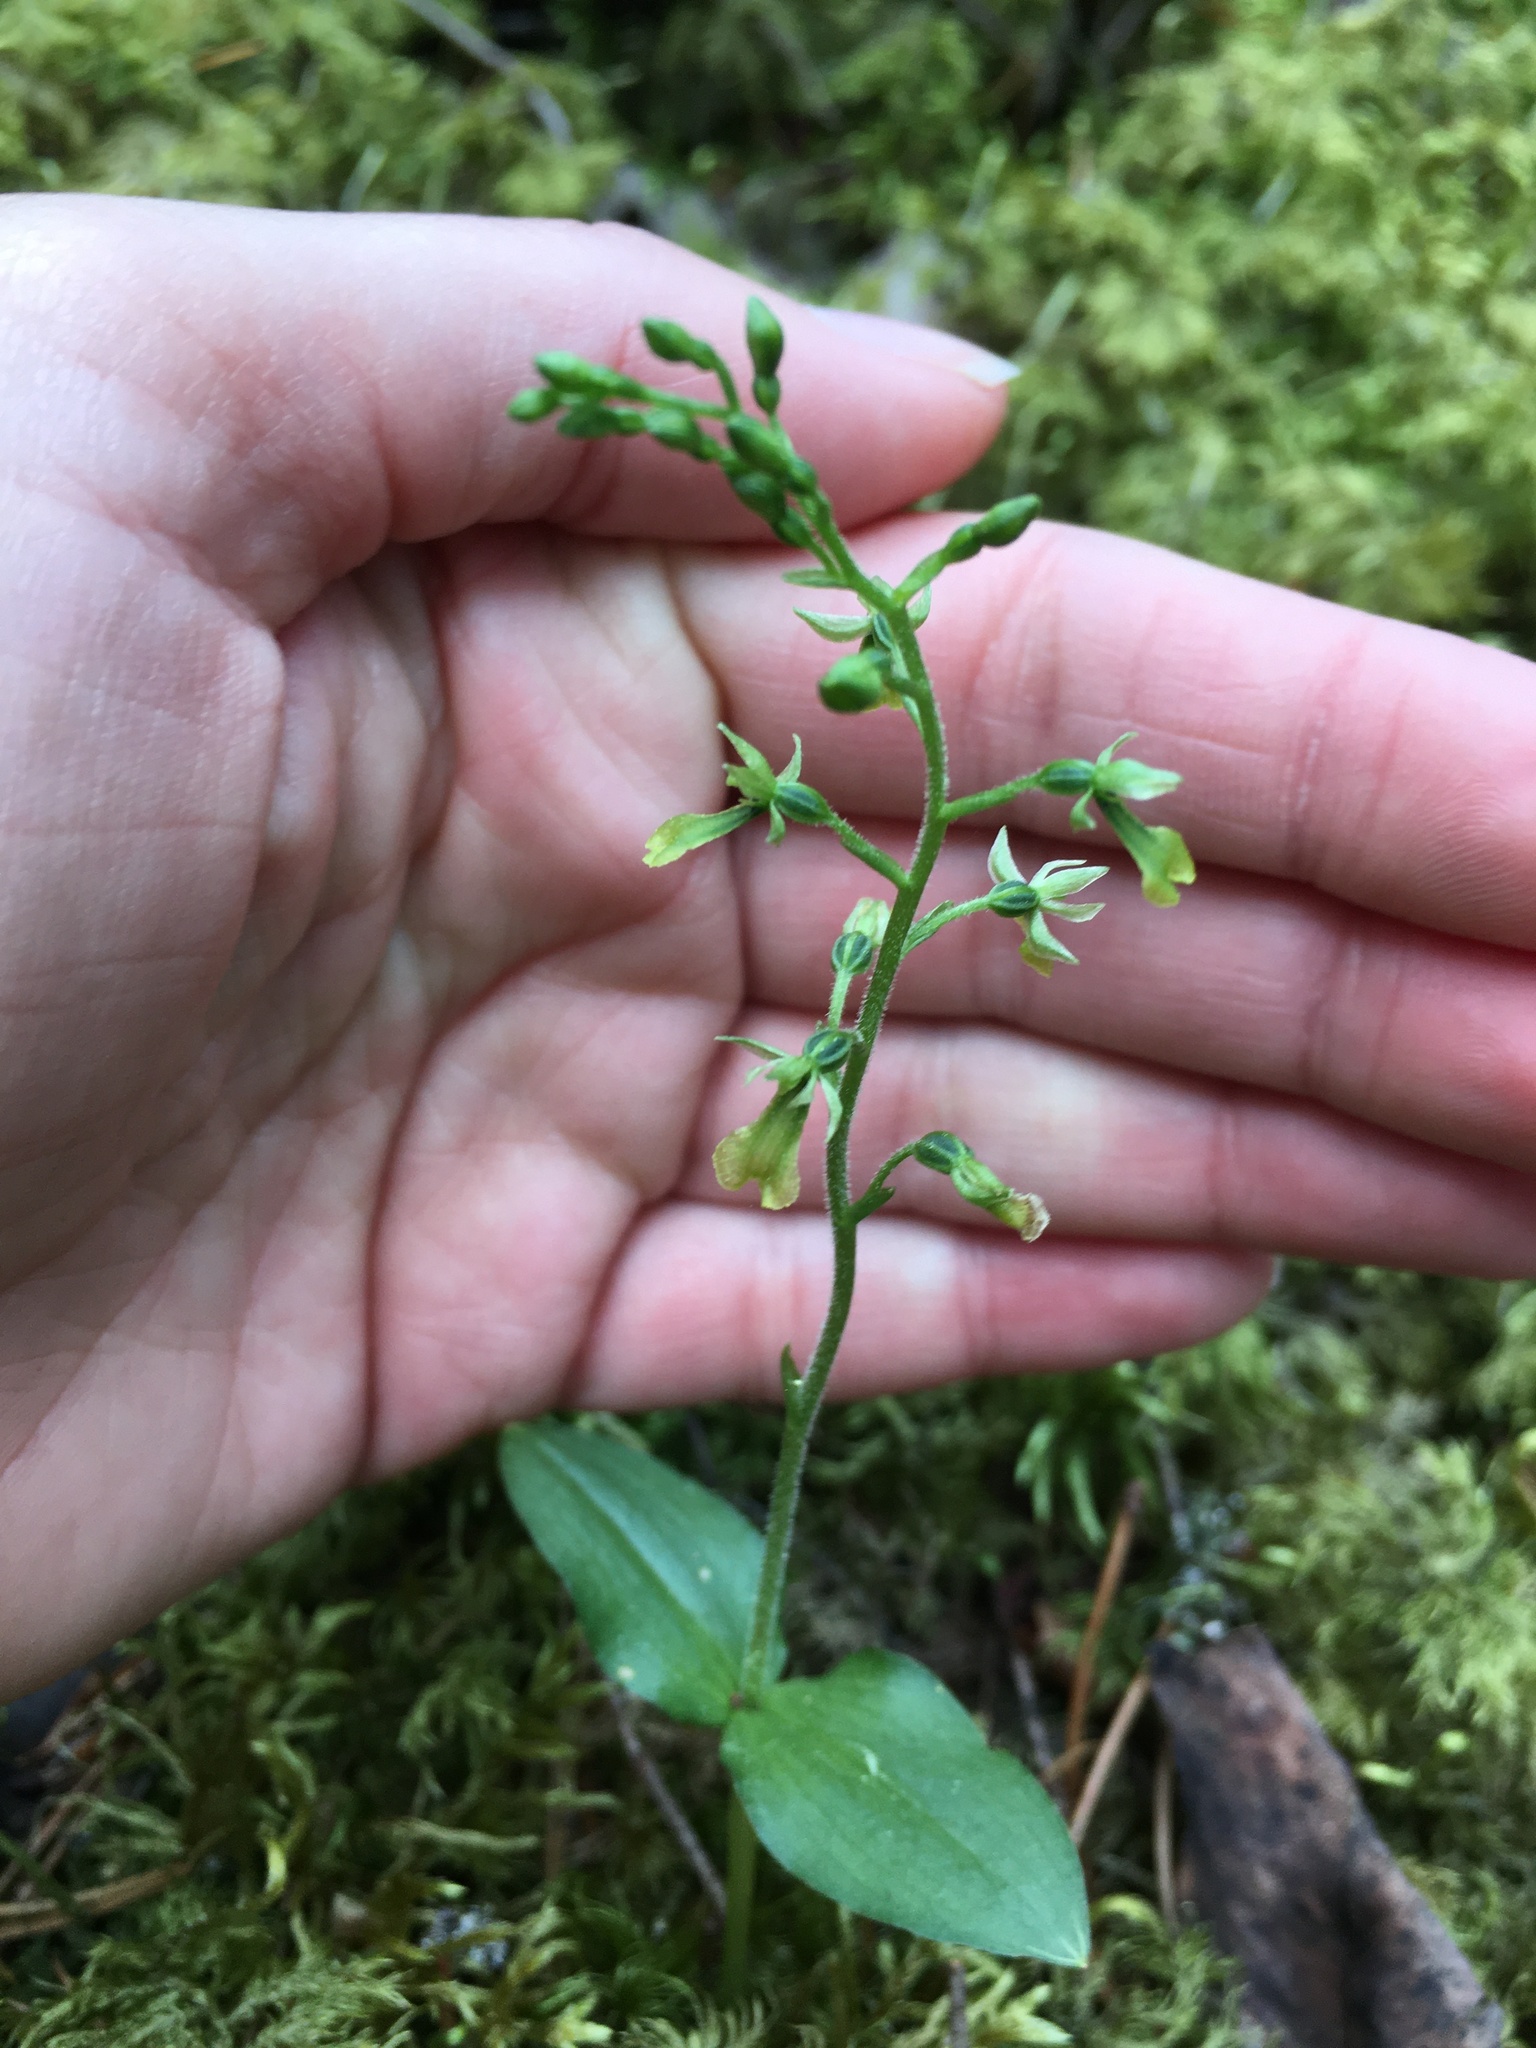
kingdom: Plantae
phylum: Tracheophyta
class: Liliopsida
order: Asparagales
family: Orchidaceae
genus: Neottia
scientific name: Neottia banksiana
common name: Northwestern twayblade
